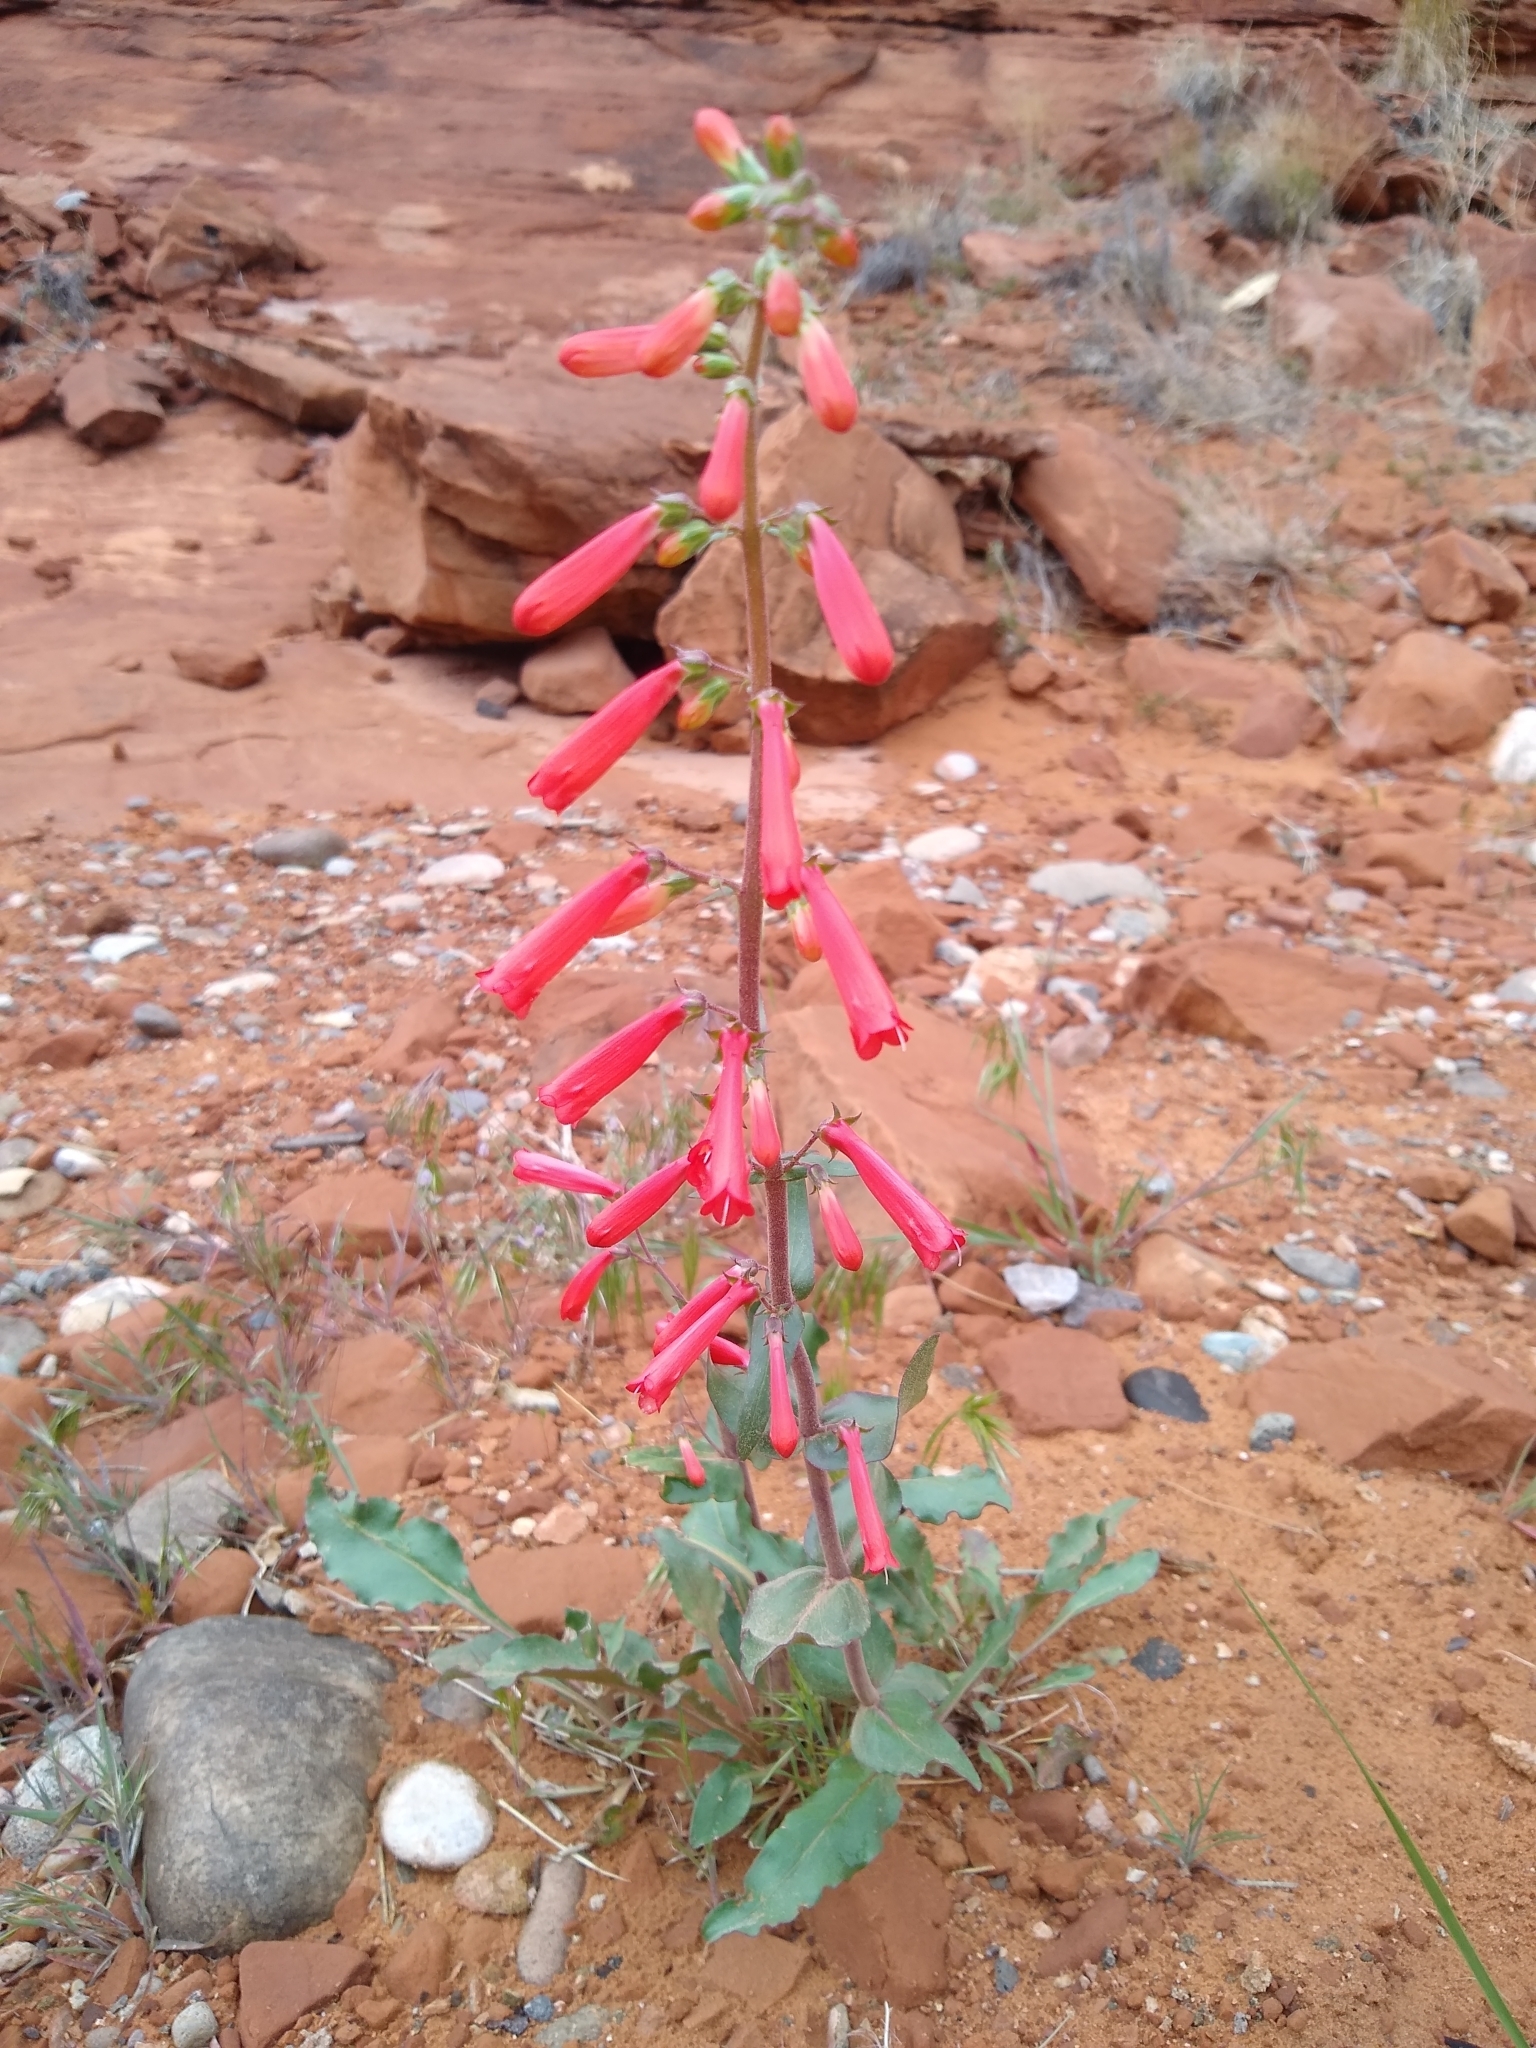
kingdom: Plantae
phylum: Tracheophyta
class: Magnoliopsida
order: Lamiales
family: Plantaginaceae
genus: Penstemon
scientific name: Penstemon eatonii
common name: Eaton's penstemon
